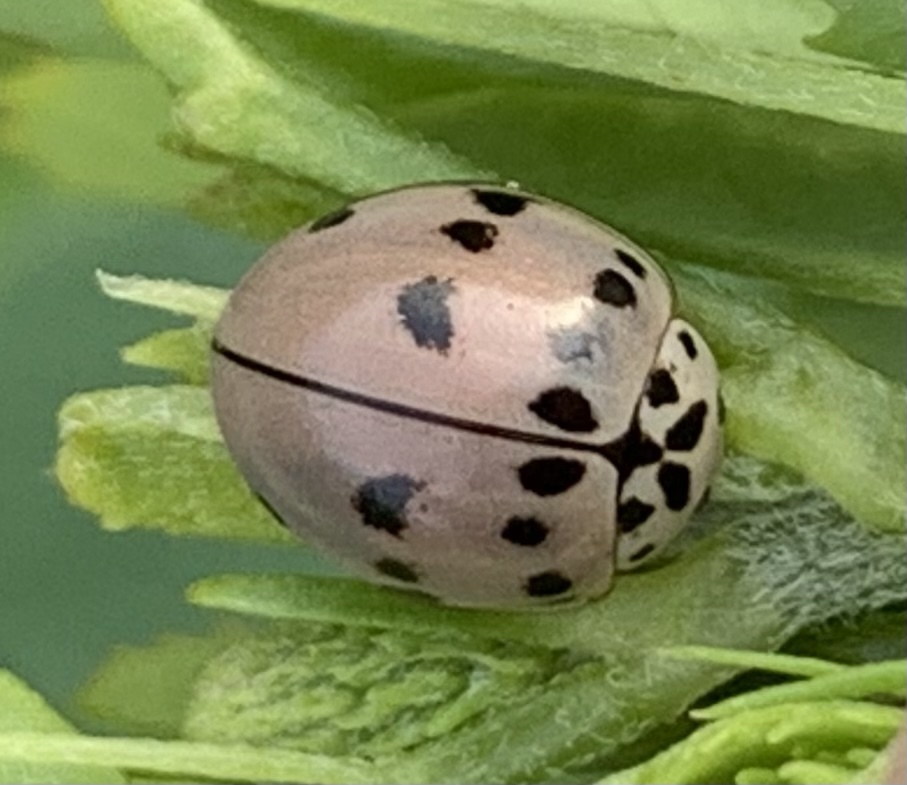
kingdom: Animalia
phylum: Arthropoda
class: Insecta
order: Coleoptera
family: Coccinellidae
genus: Olla
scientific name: Olla v-nigrum
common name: Ashy gray lady beetle
